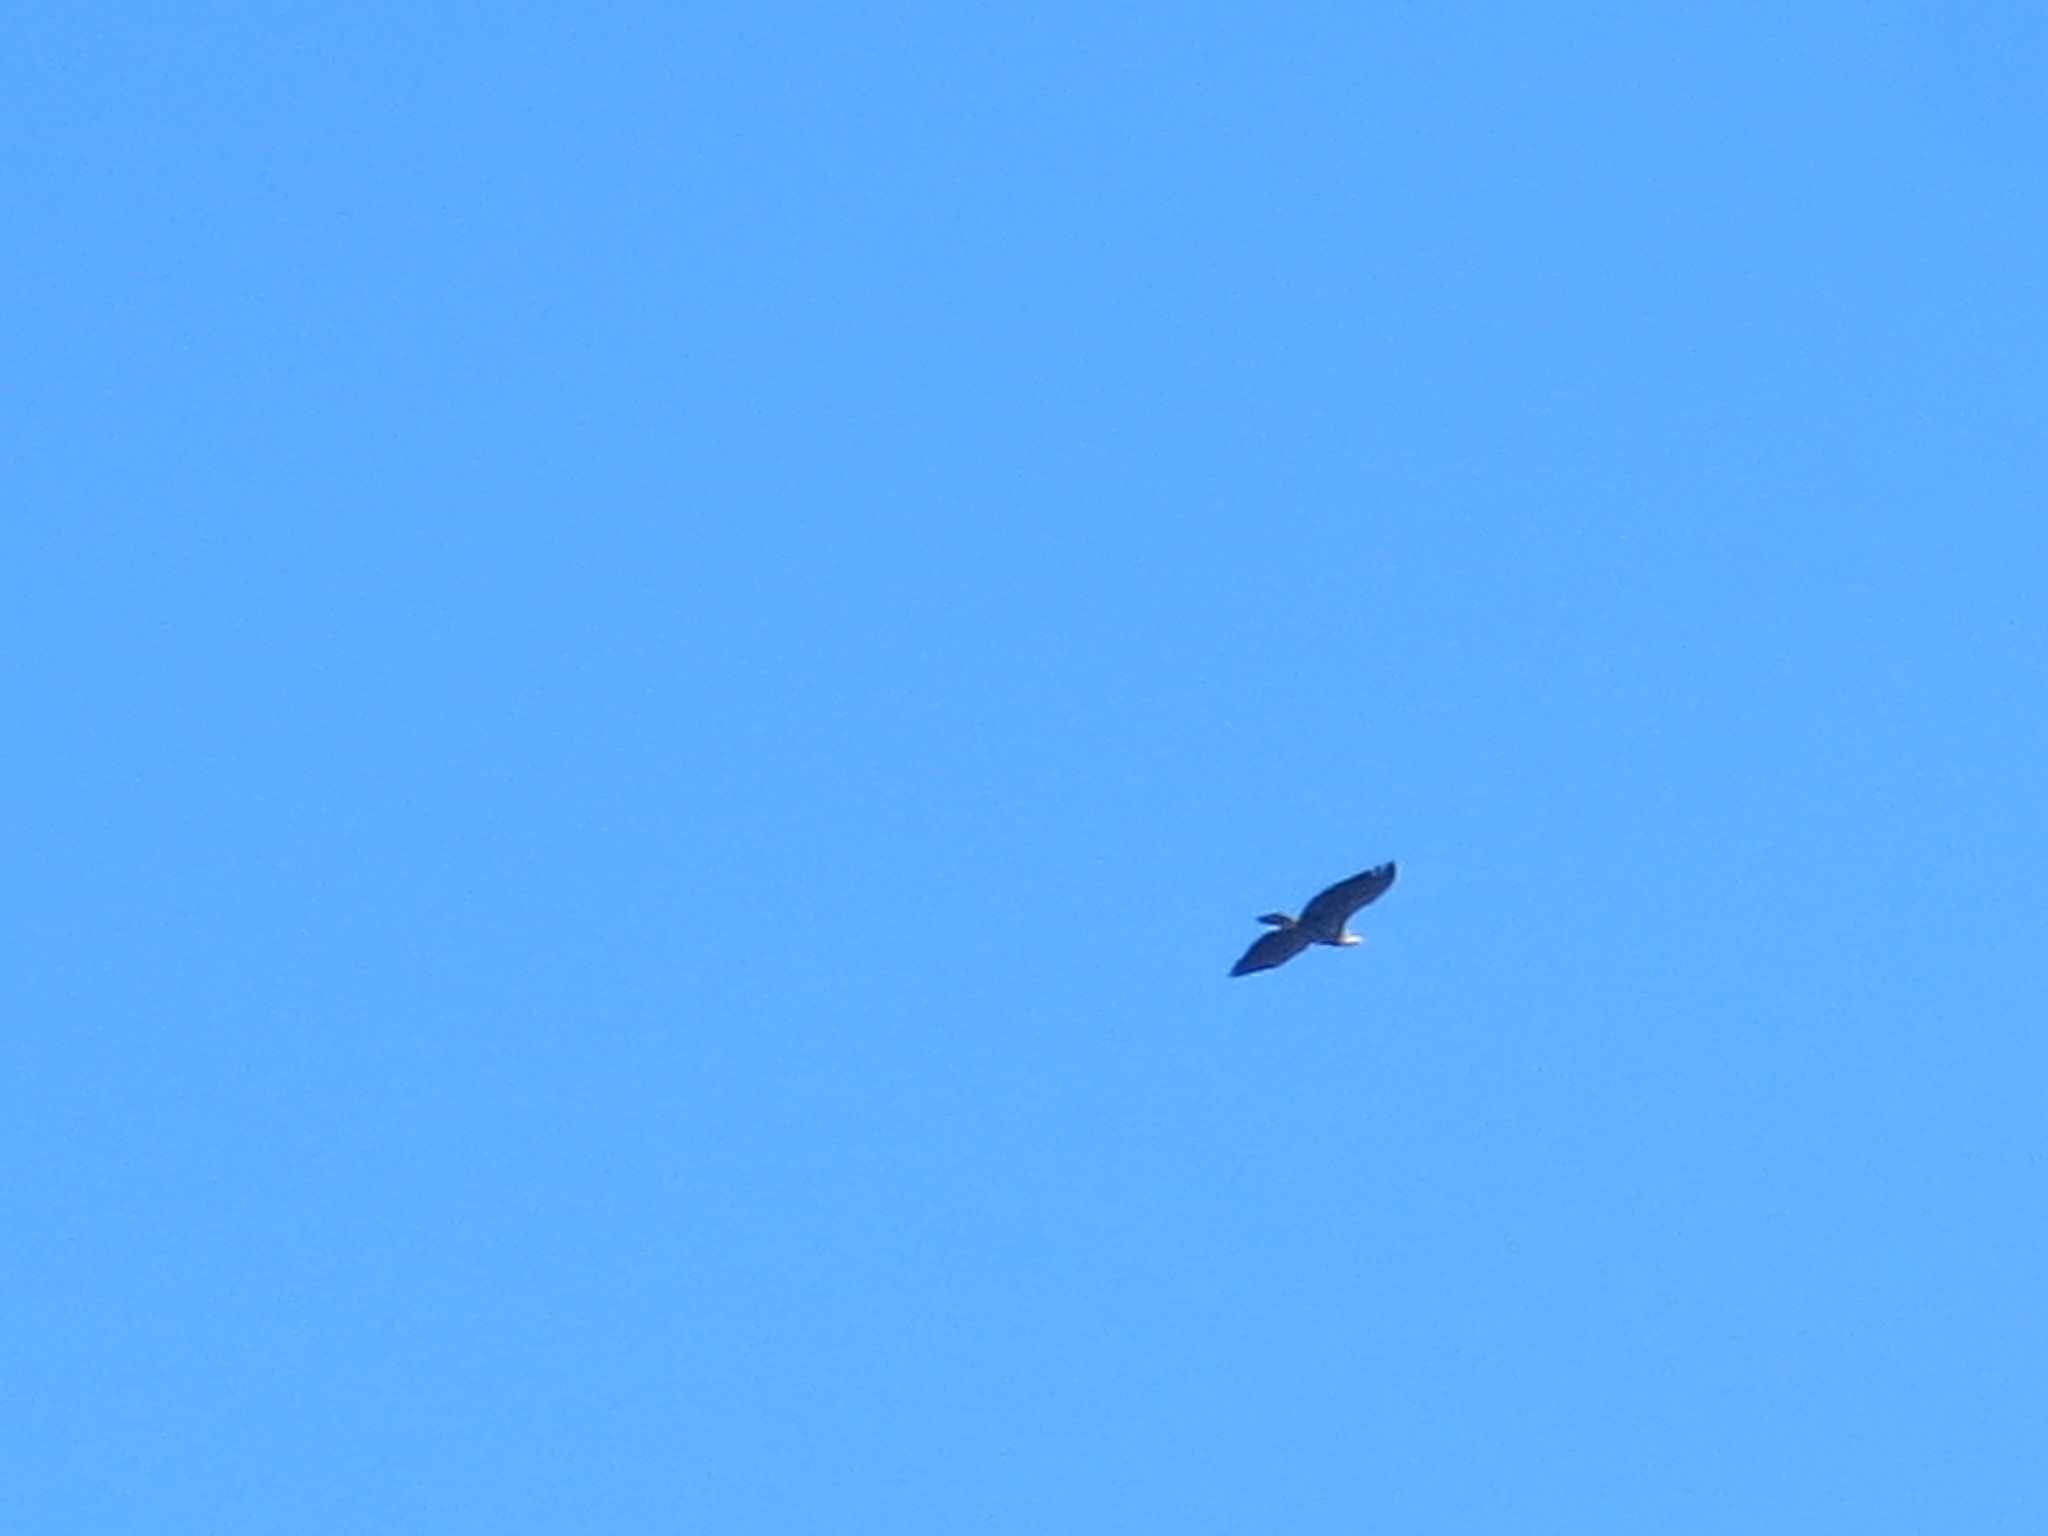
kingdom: Animalia
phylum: Chordata
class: Aves
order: Accipitriformes
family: Accipitridae
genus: Haliaeetus
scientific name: Haliaeetus leucocephalus
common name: Bald eagle
